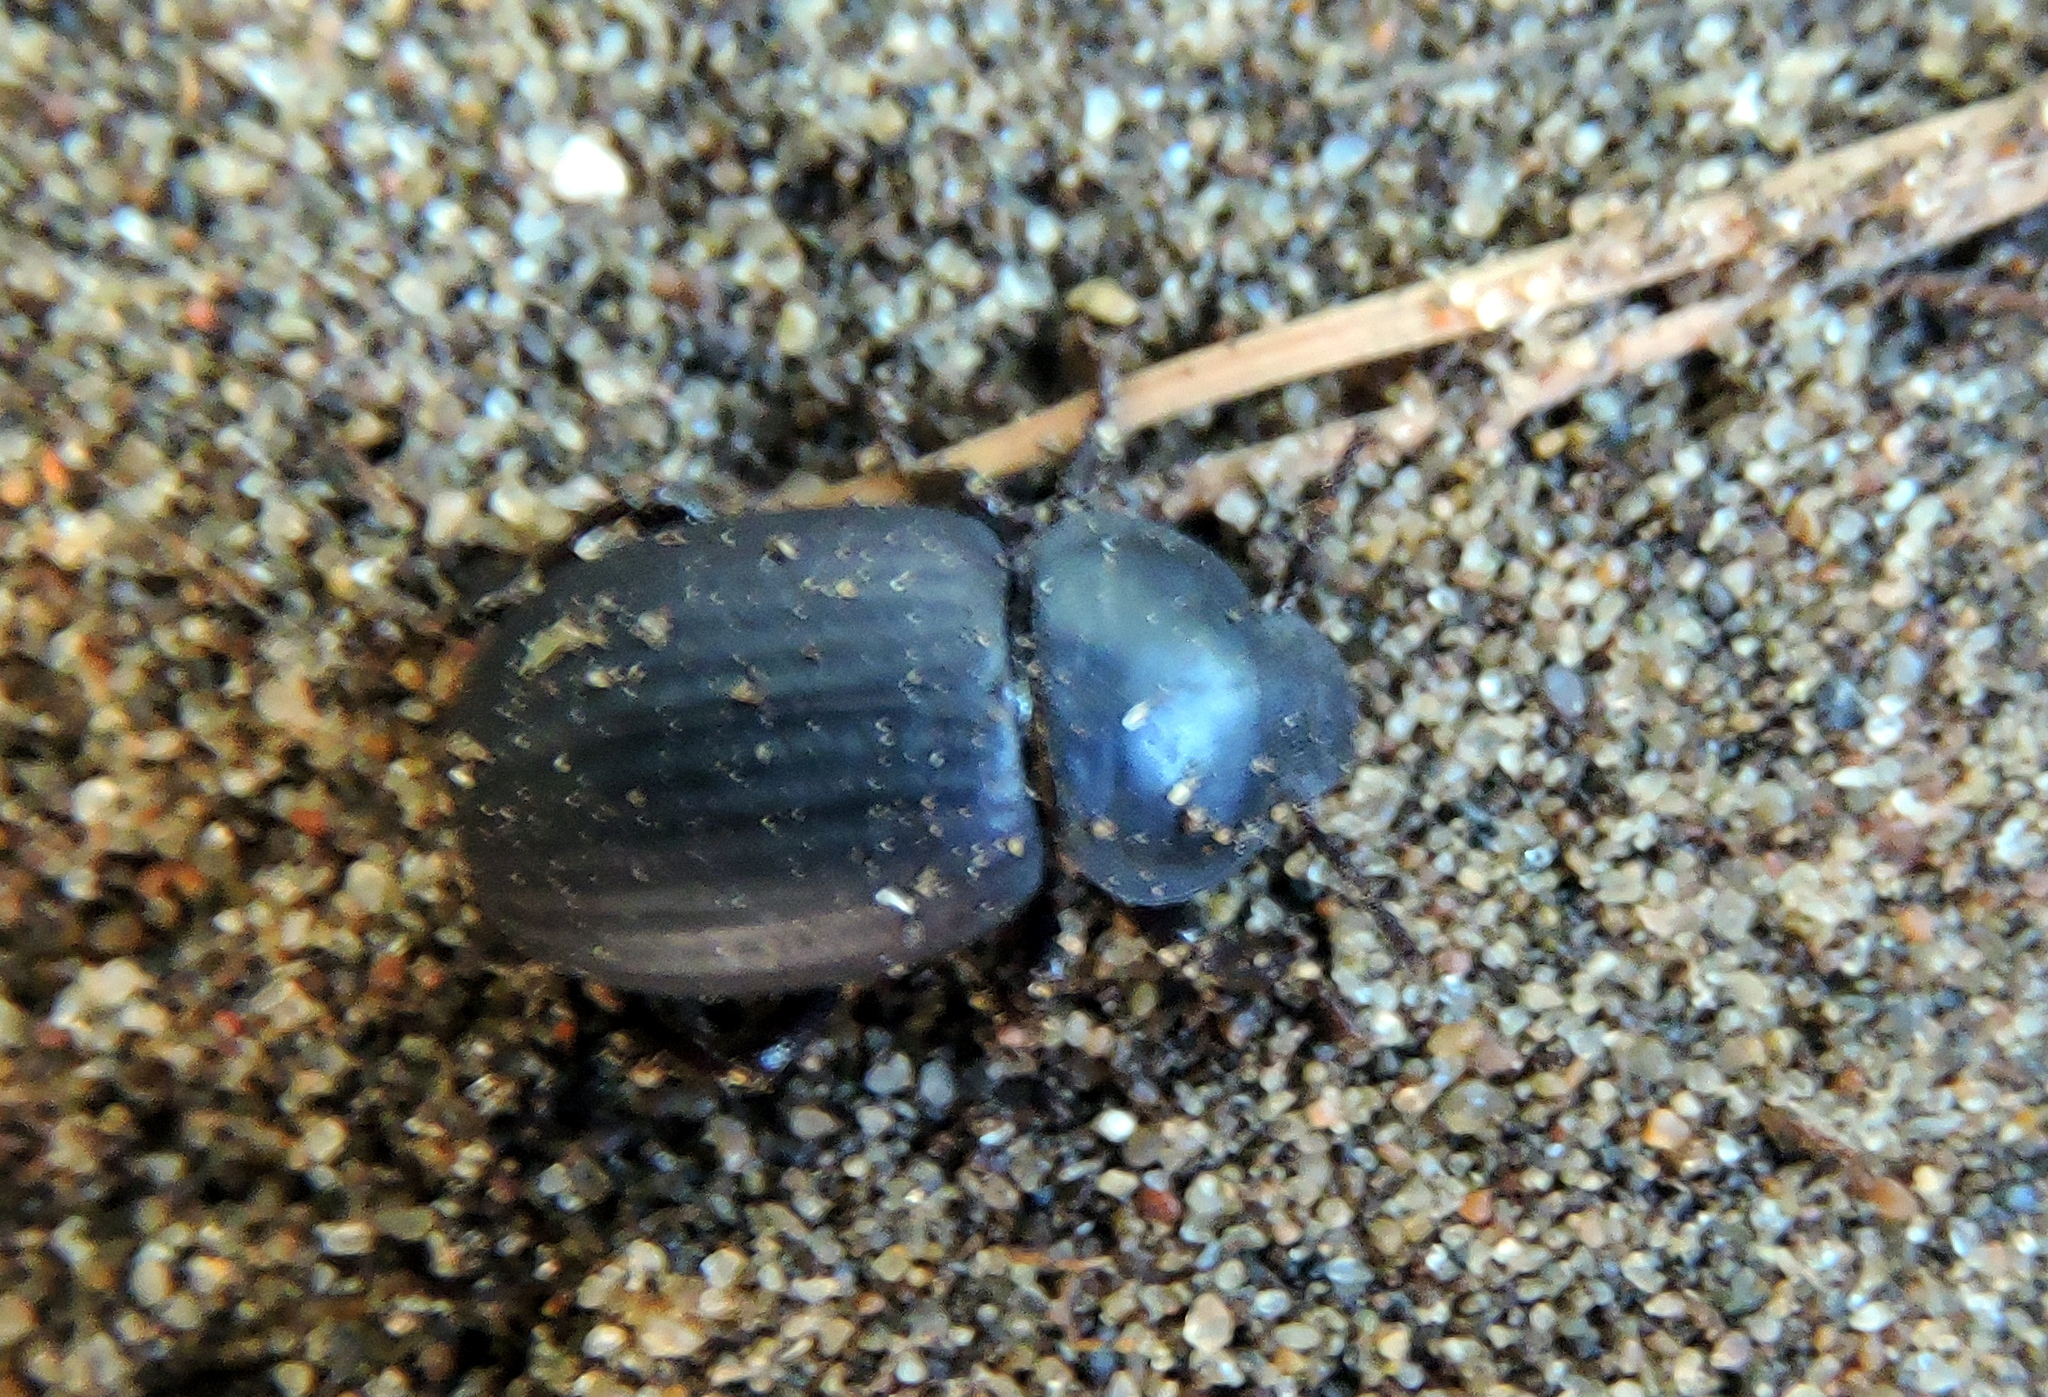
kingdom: Animalia
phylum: Arthropoda
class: Insecta
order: Coleoptera
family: Tenebrionidae
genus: Scotobius
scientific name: Scotobius
